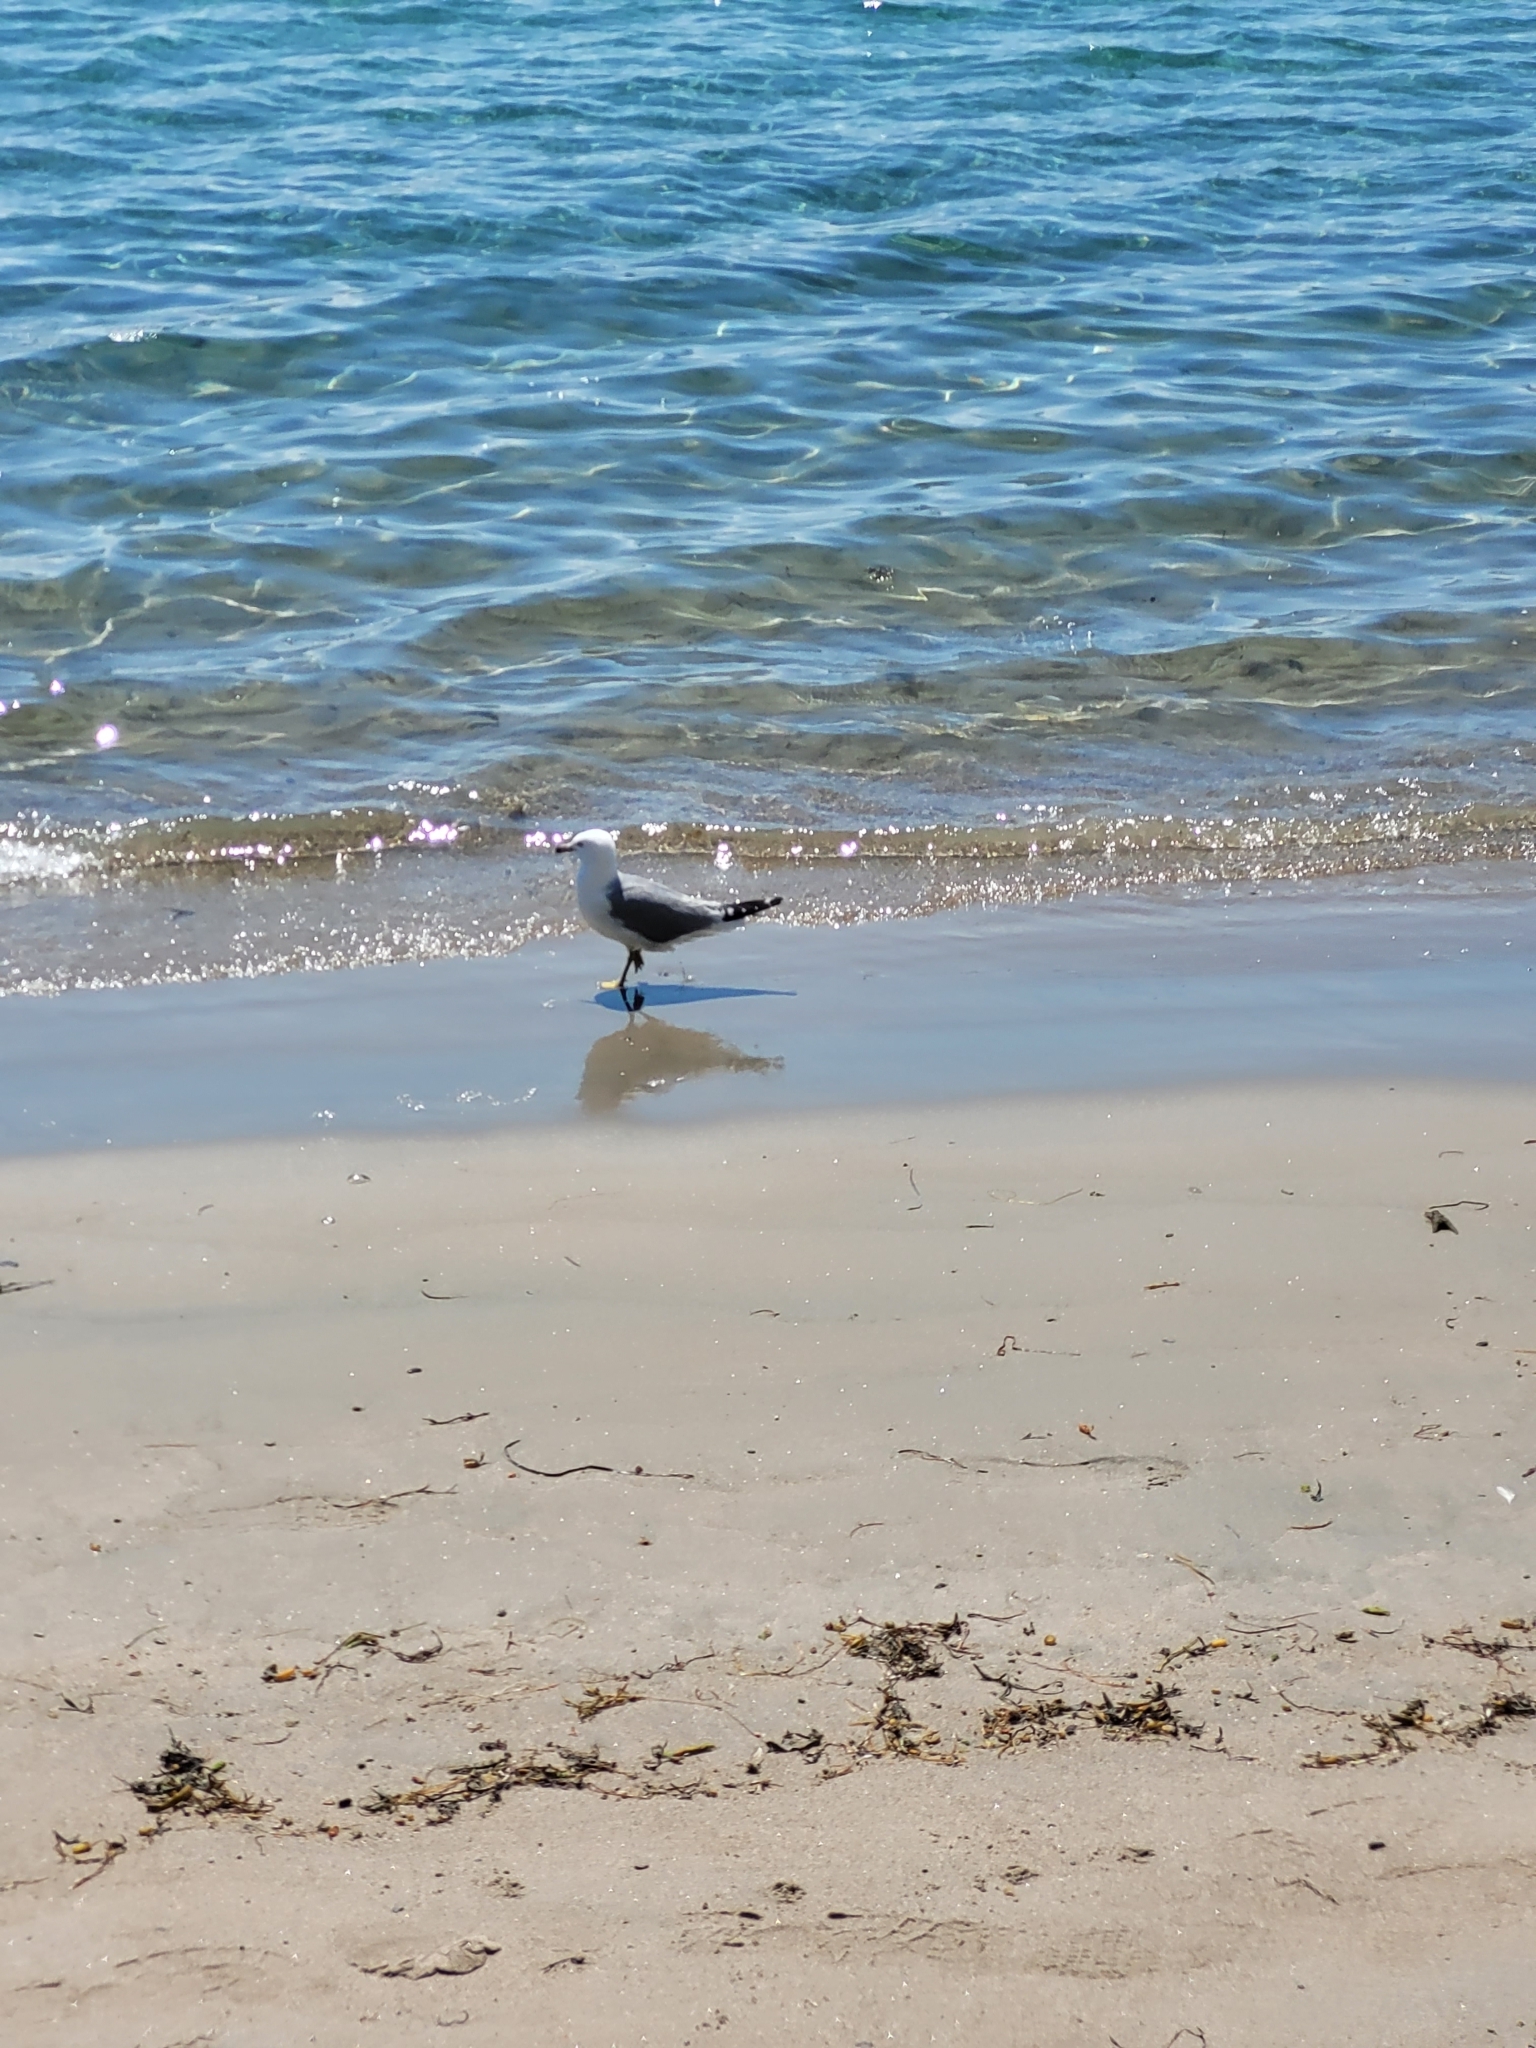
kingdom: Animalia
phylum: Chordata
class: Aves
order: Charadriiformes
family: Laridae
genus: Larus
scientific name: Larus delawarensis
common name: Ring-billed gull
